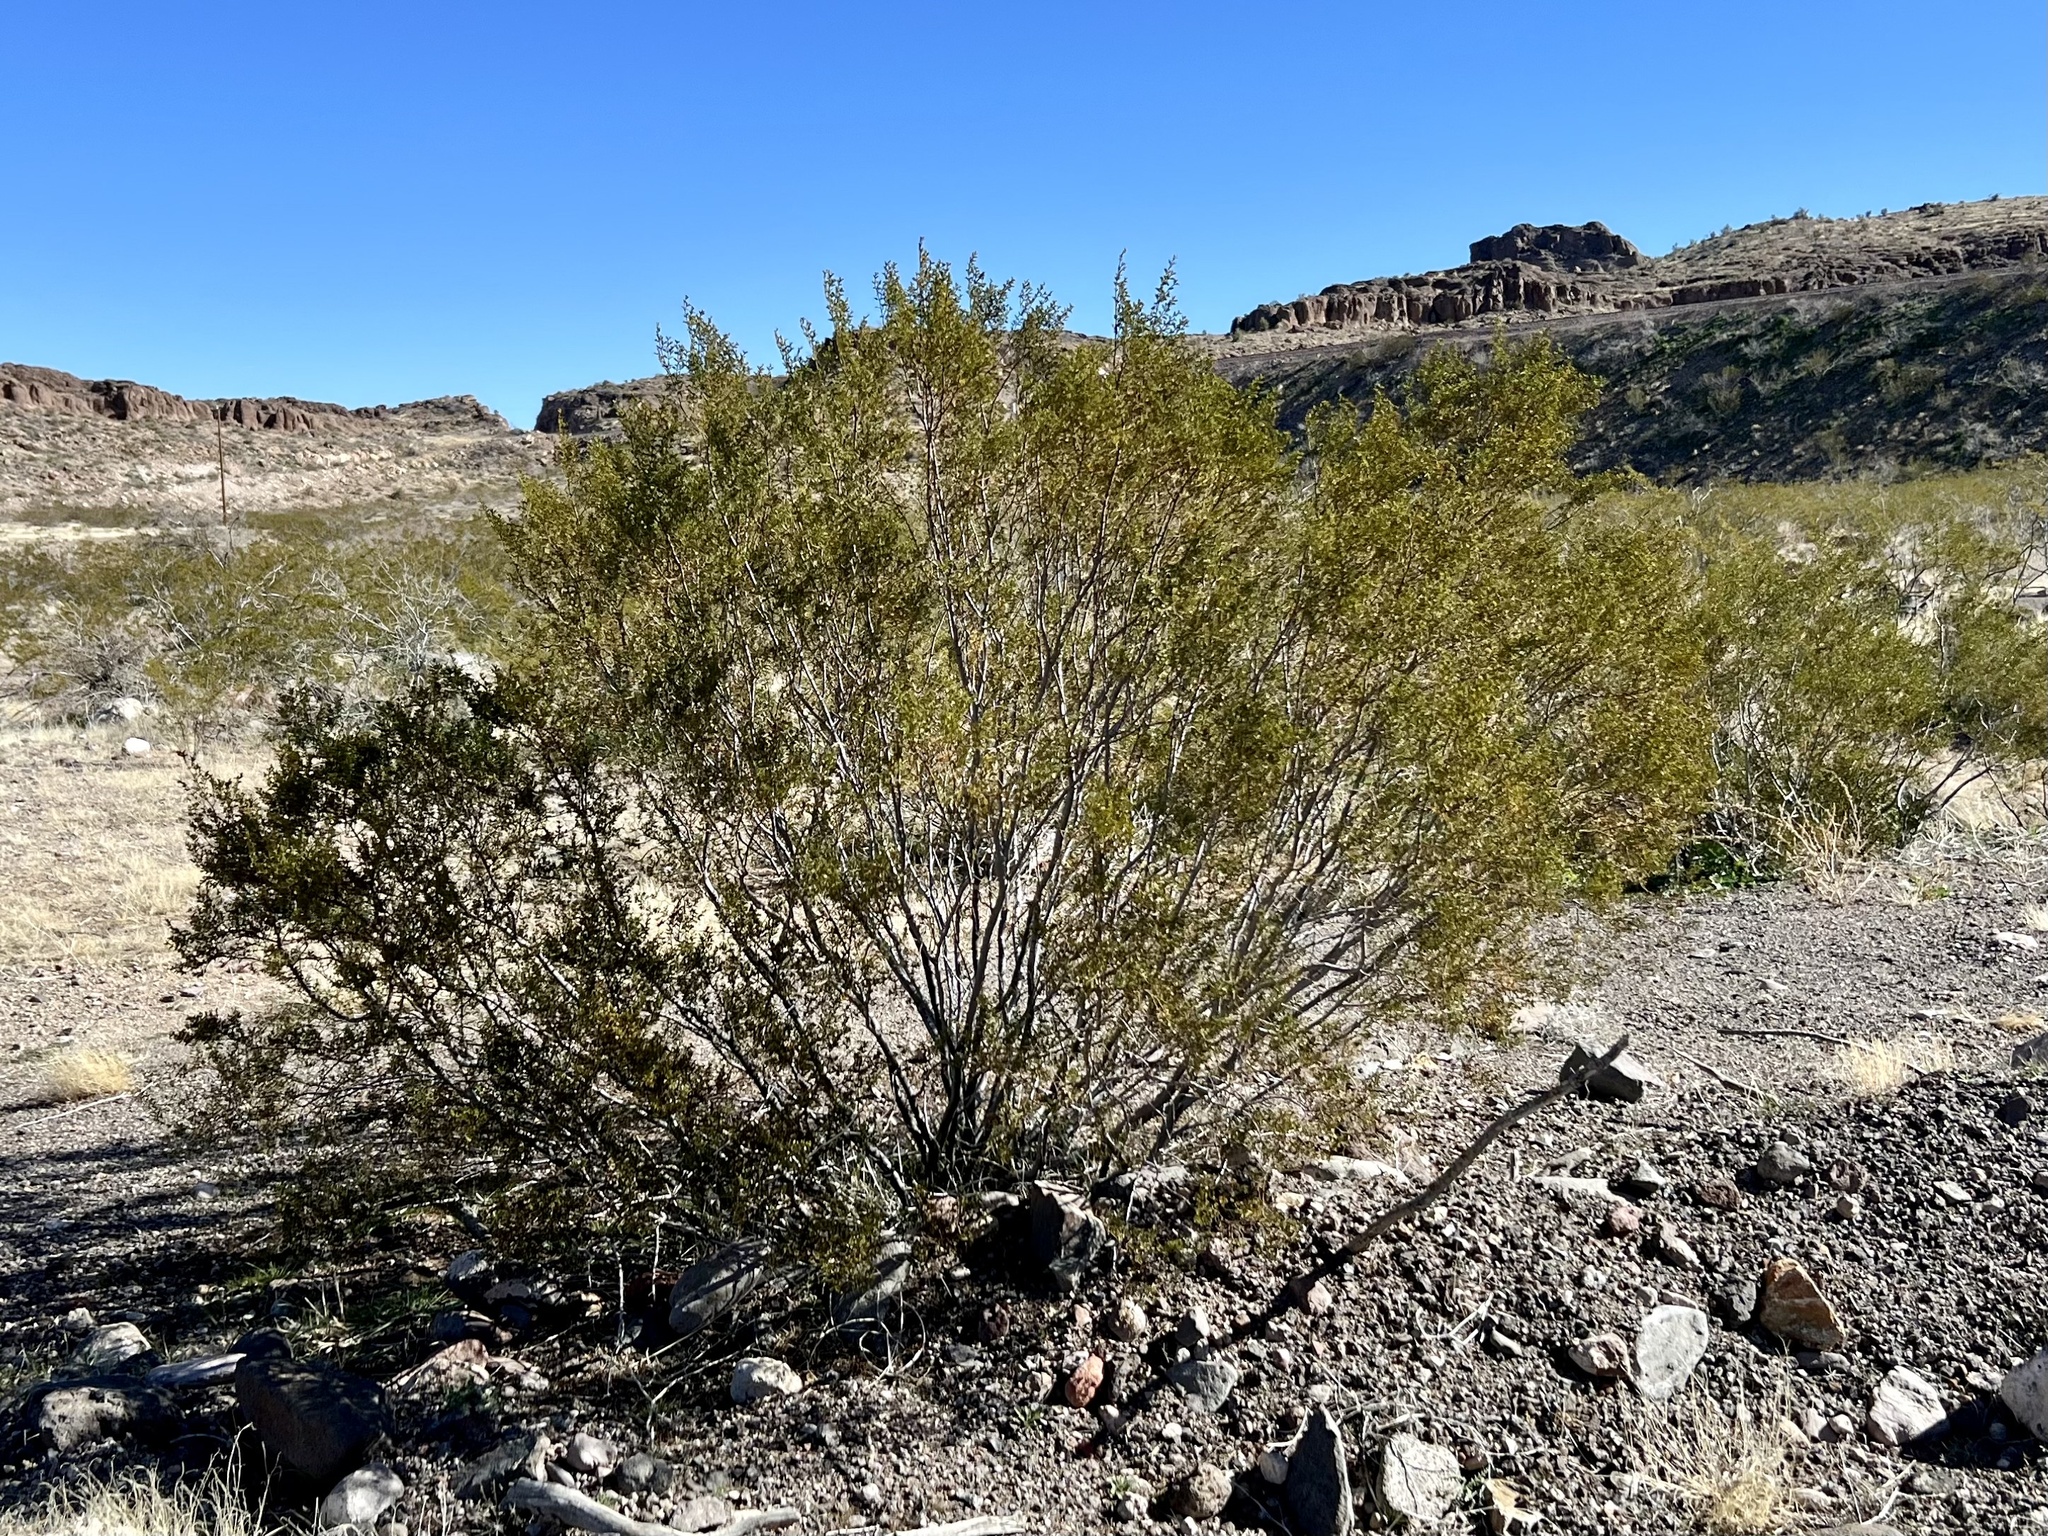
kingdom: Plantae
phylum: Tracheophyta
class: Magnoliopsida
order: Zygophyllales
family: Zygophyllaceae
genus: Larrea
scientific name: Larrea tridentata
